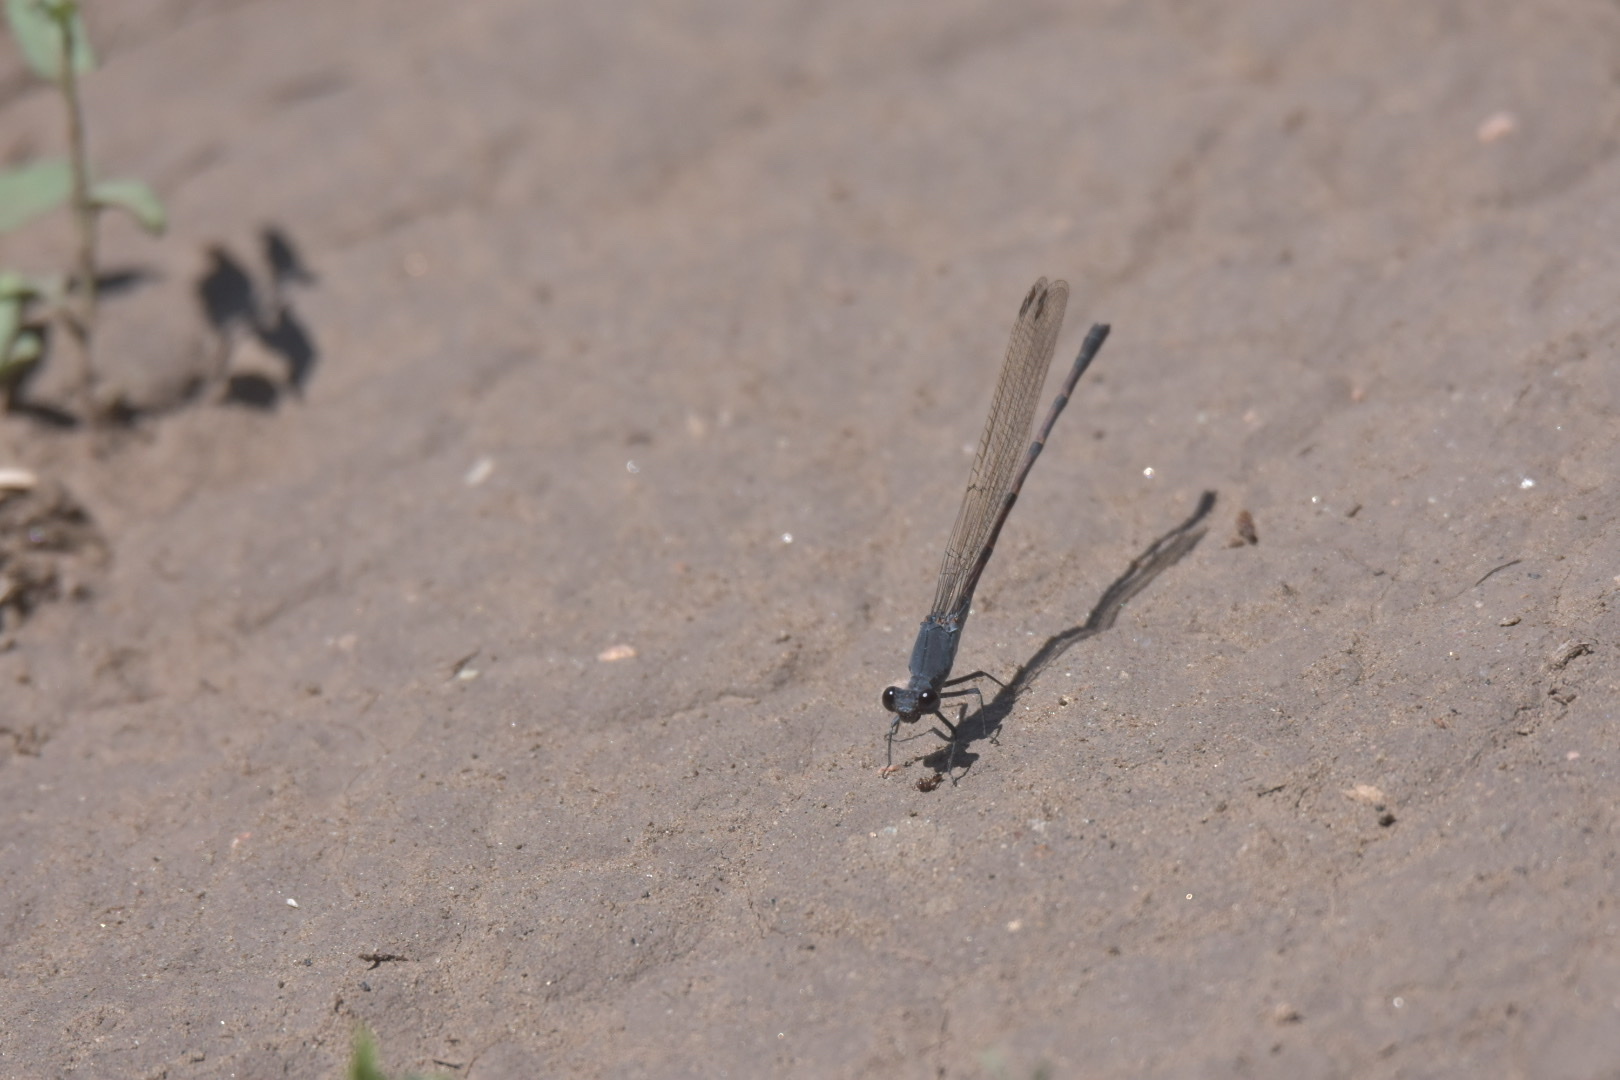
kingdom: Animalia
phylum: Arthropoda
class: Insecta
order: Odonata
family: Coenagrionidae
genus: Argia
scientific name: Argia lugens
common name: Sooty dancer
